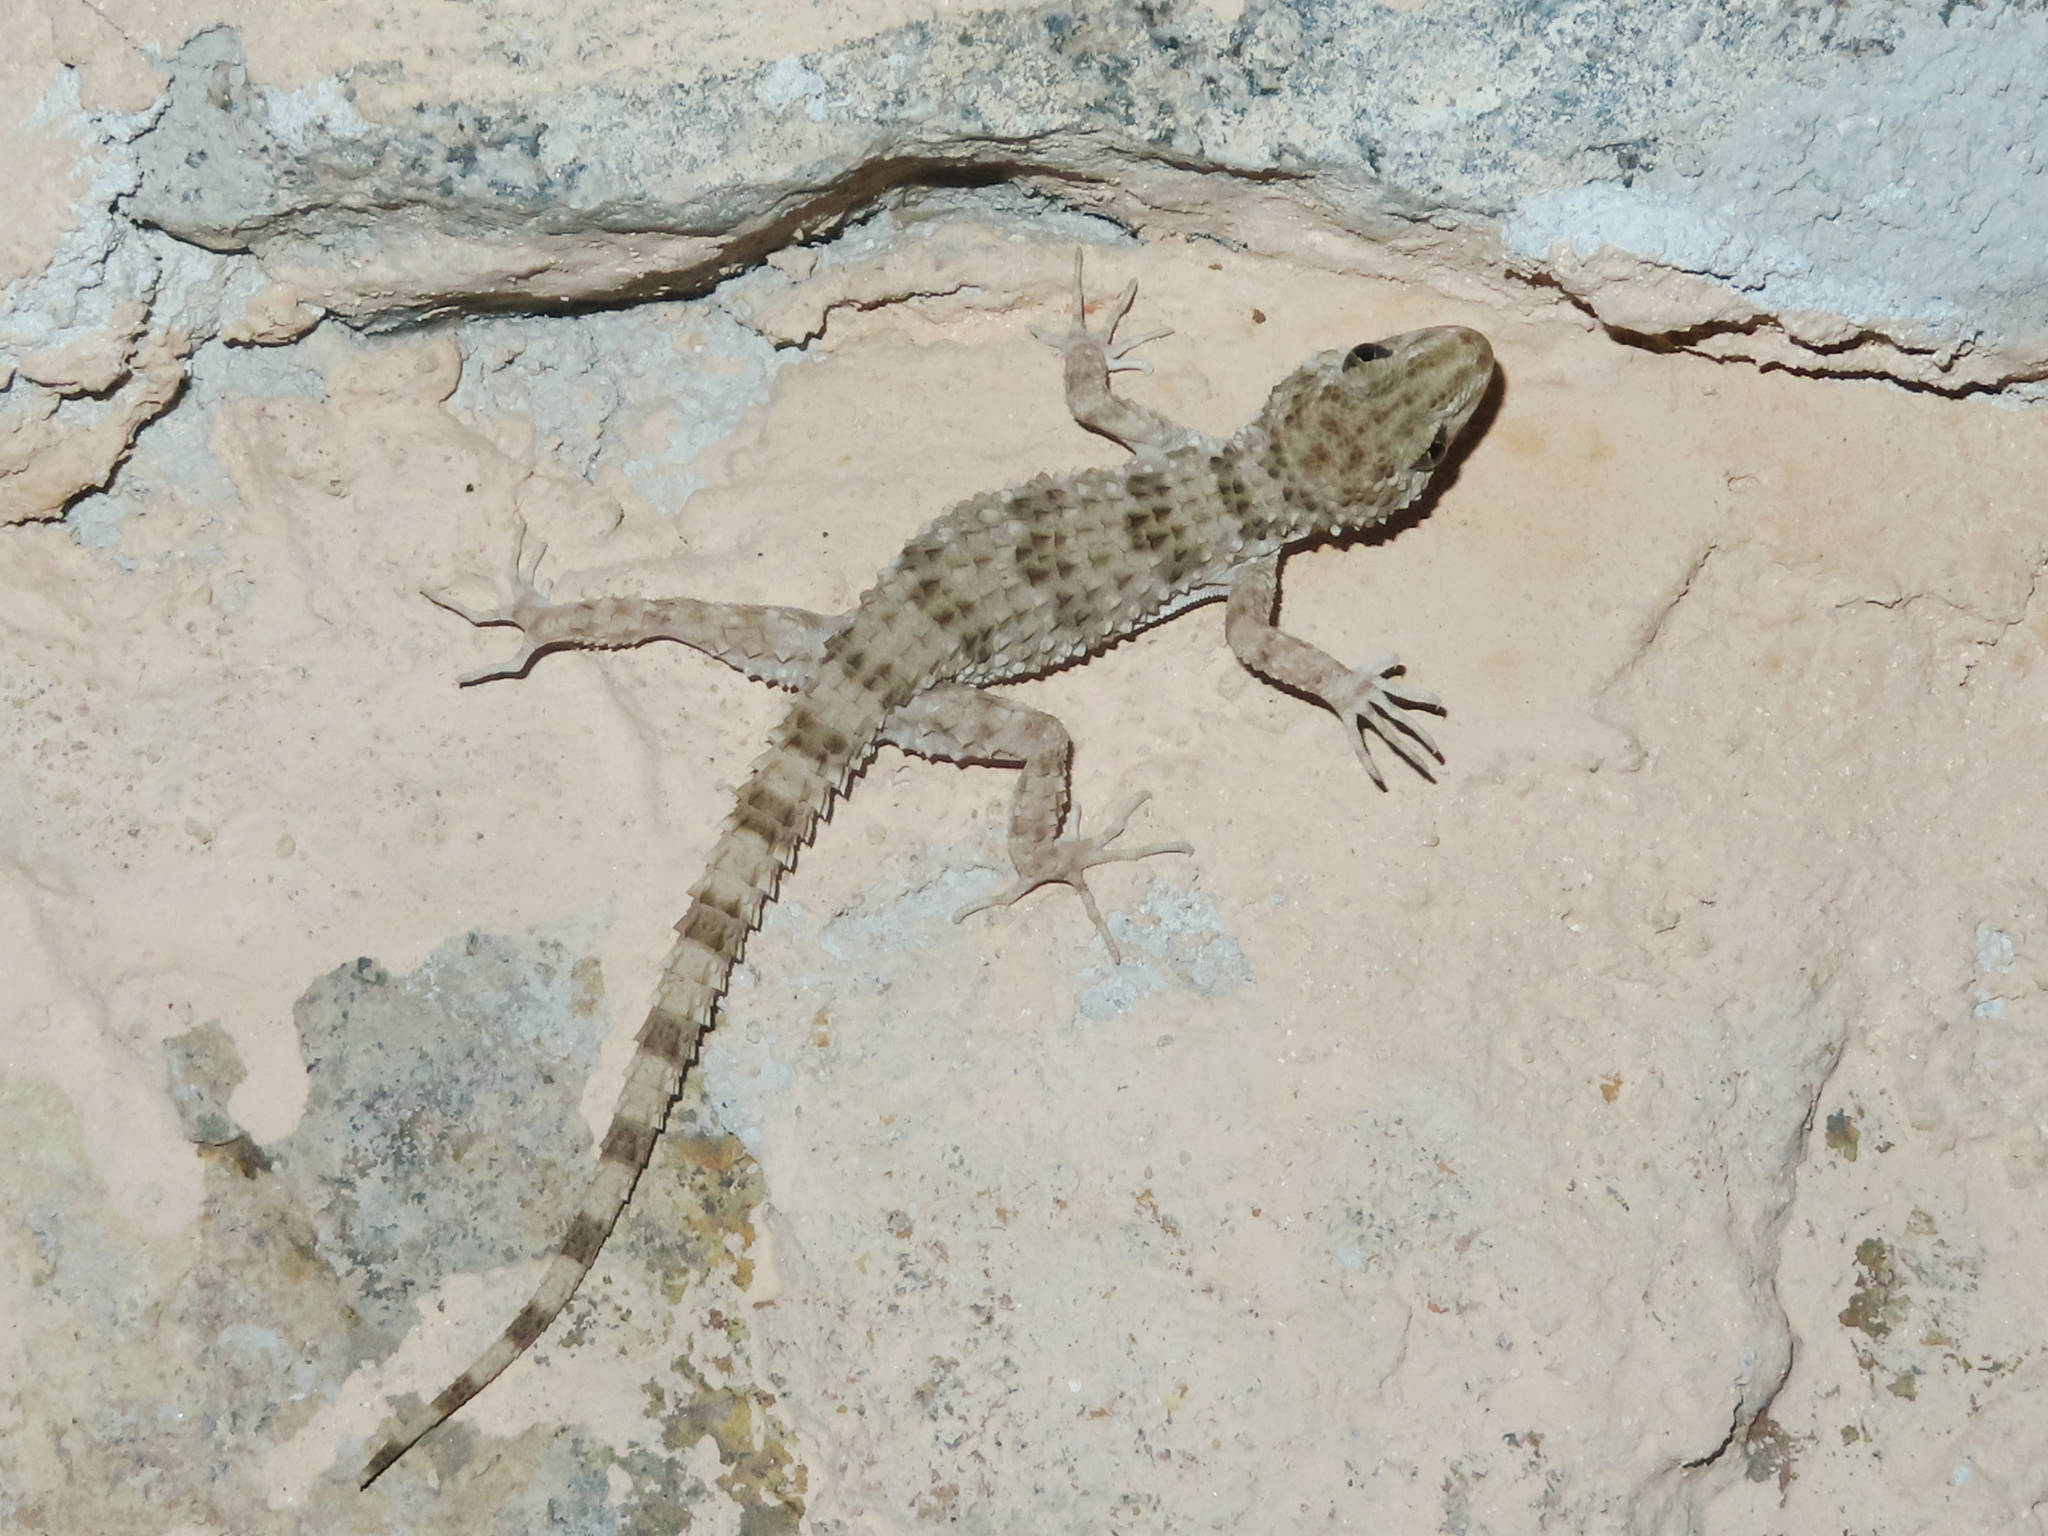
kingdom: Animalia
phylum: Chordata
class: Squamata
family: Gekkonidae
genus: Tenuidactylus
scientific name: Tenuidactylus caspius
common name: Caspian bent-toed gecko
